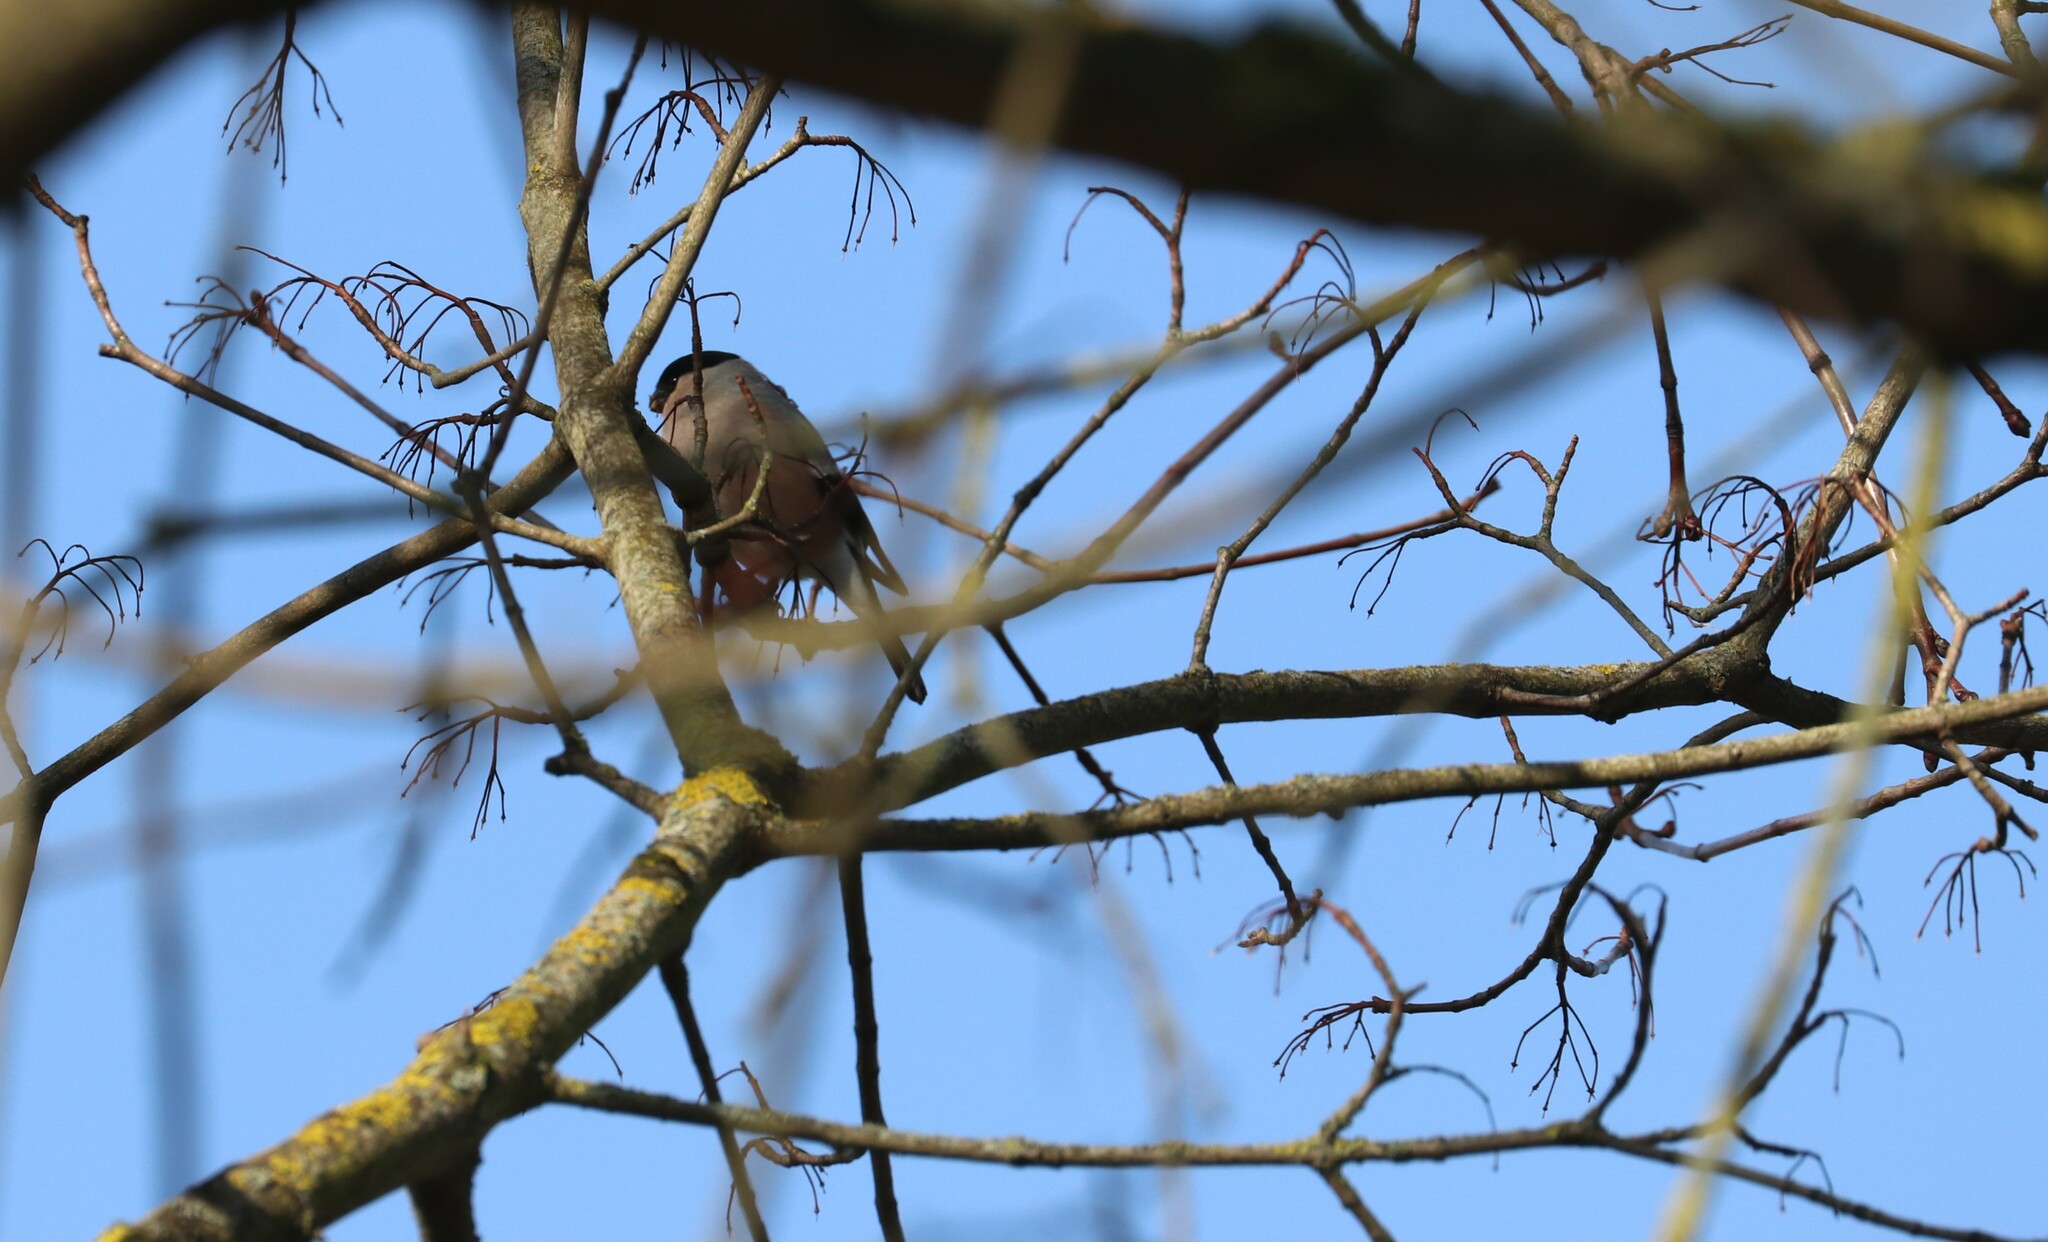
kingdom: Animalia
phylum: Chordata
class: Aves
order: Passeriformes
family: Fringillidae
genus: Pyrrhula
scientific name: Pyrrhula pyrrhula
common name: Eurasian bullfinch
